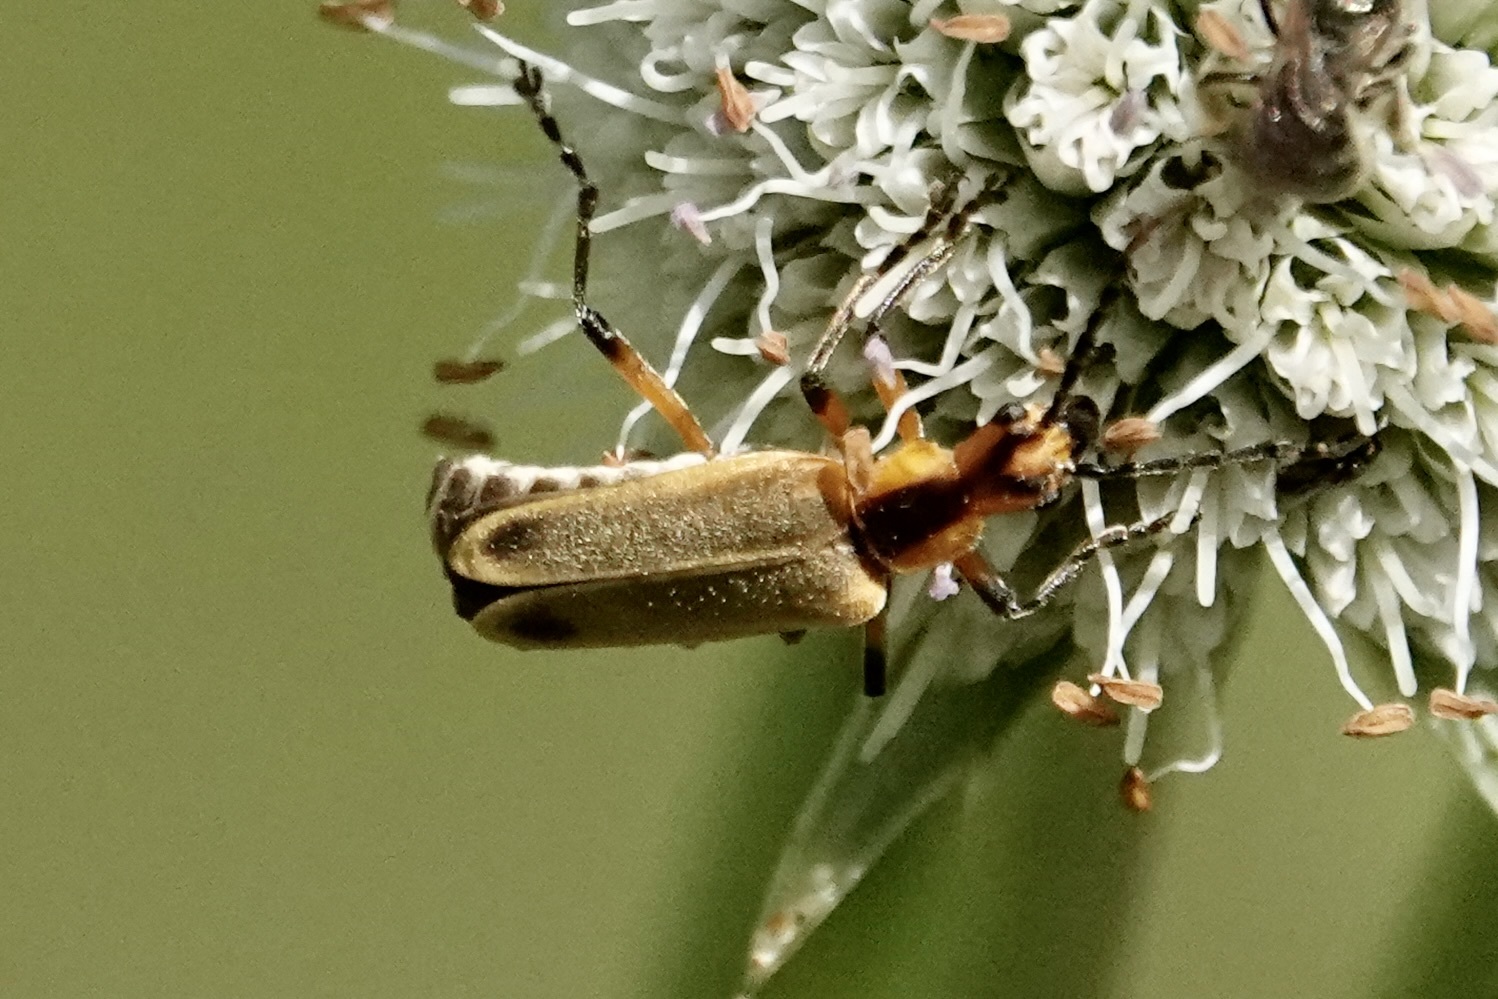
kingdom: Animalia
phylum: Arthropoda
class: Insecta
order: Coleoptera
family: Cantharidae
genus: Chauliognathus
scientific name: Chauliognathus marginatus
